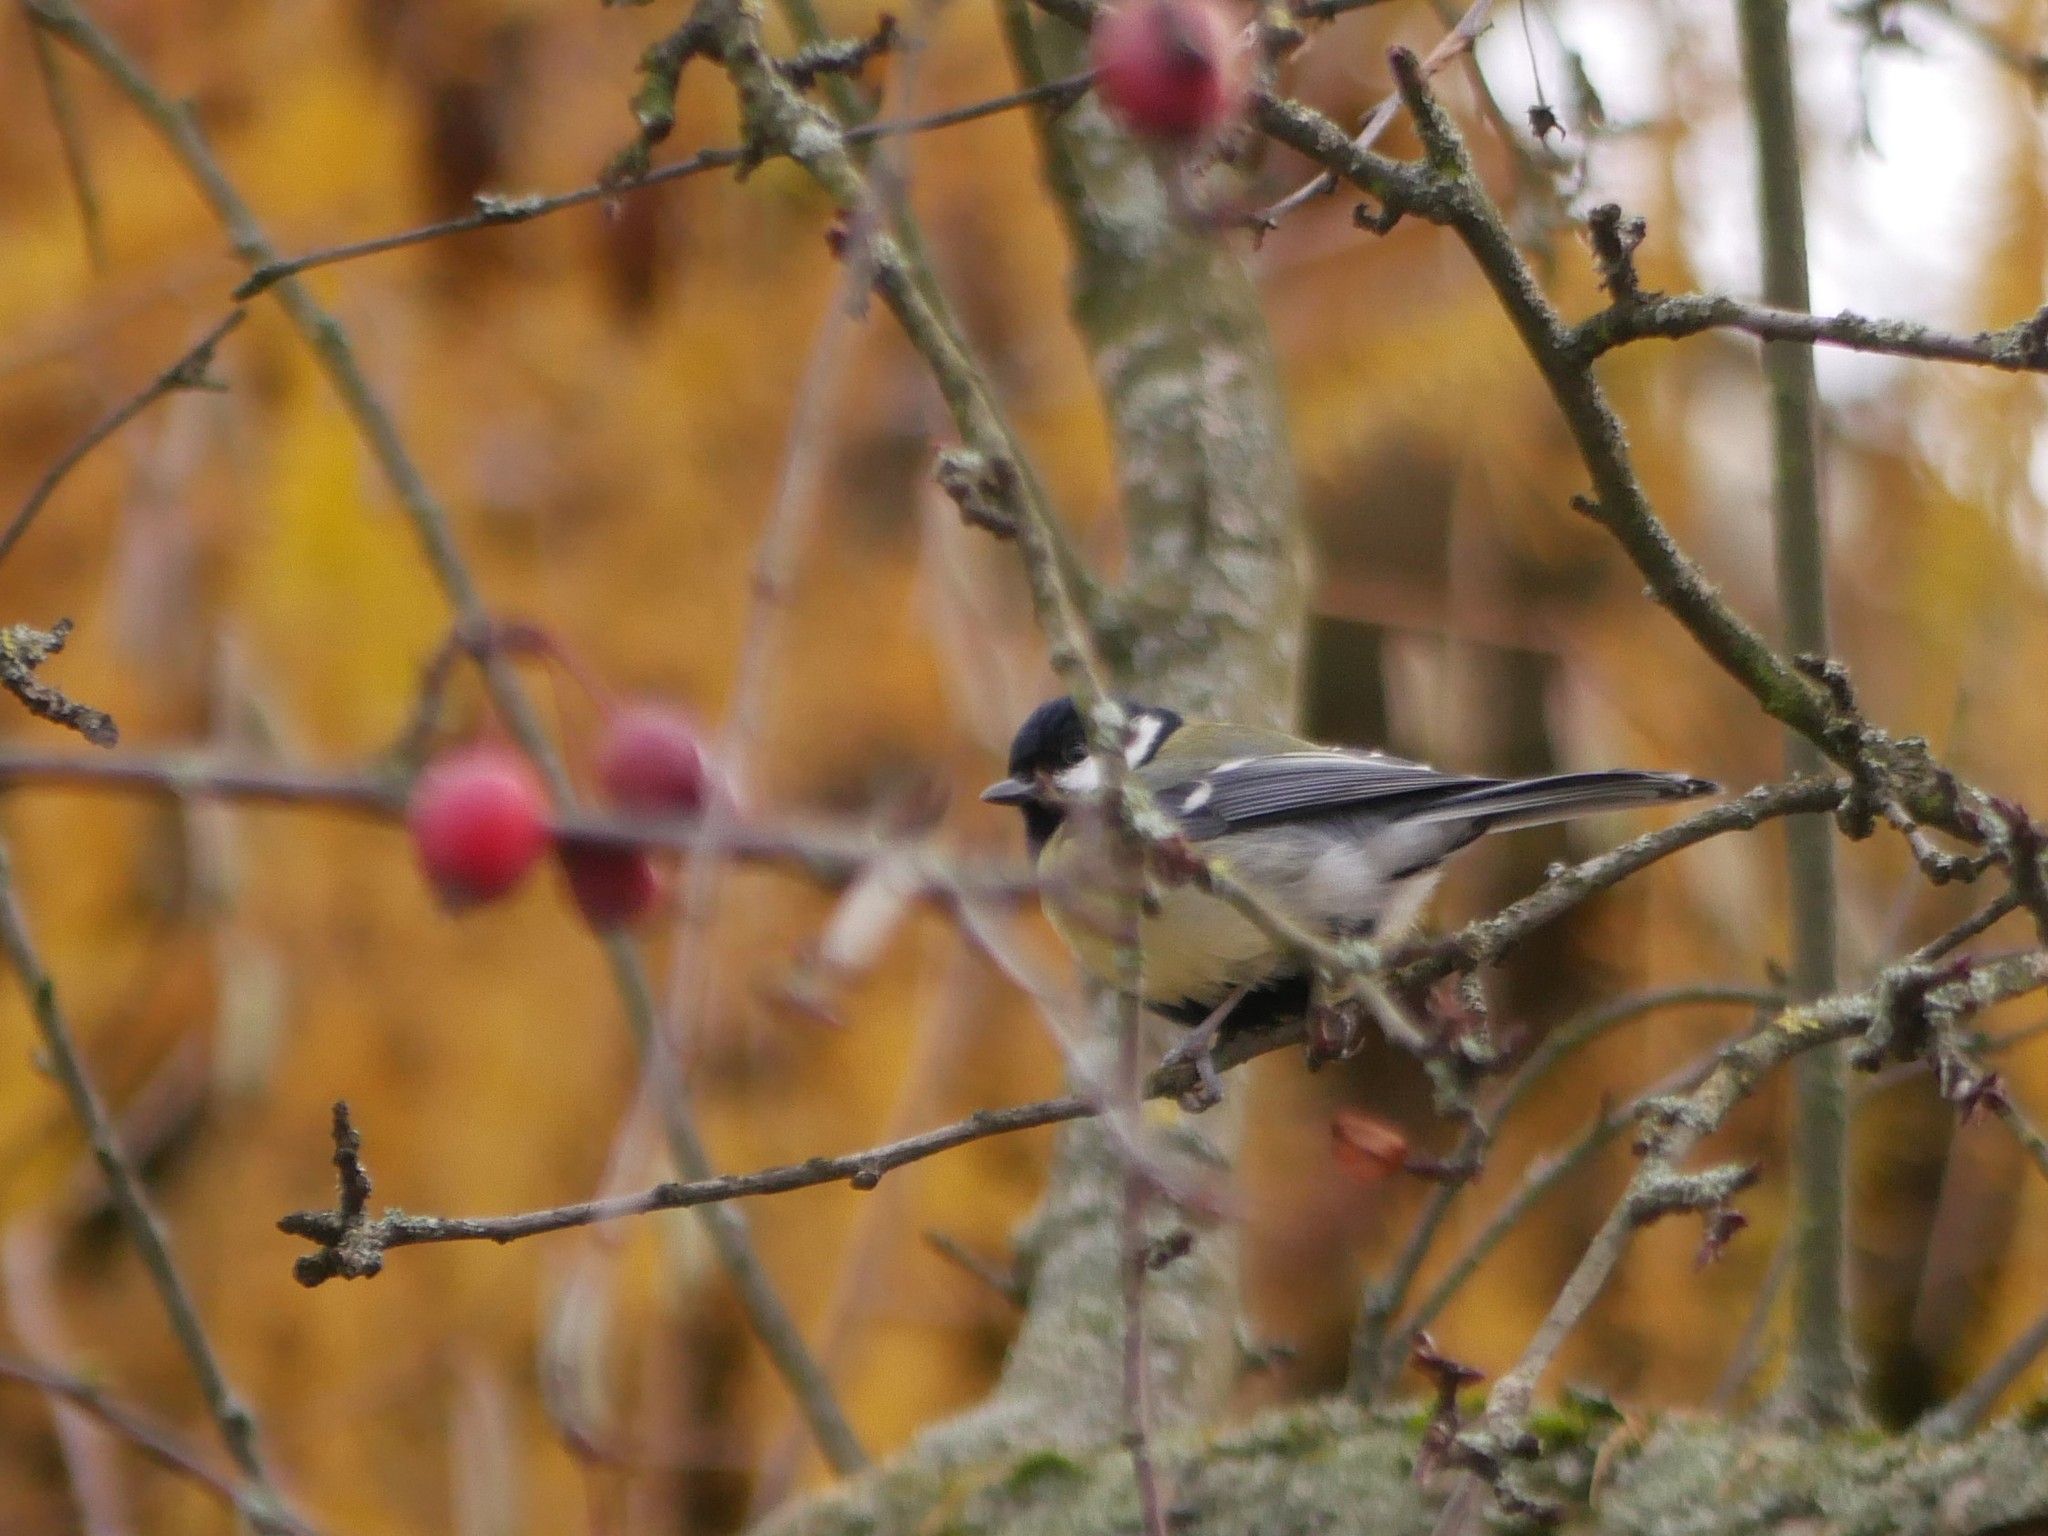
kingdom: Animalia
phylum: Chordata
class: Aves
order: Passeriformes
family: Paridae
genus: Parus
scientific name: Parus major
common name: Great tit
